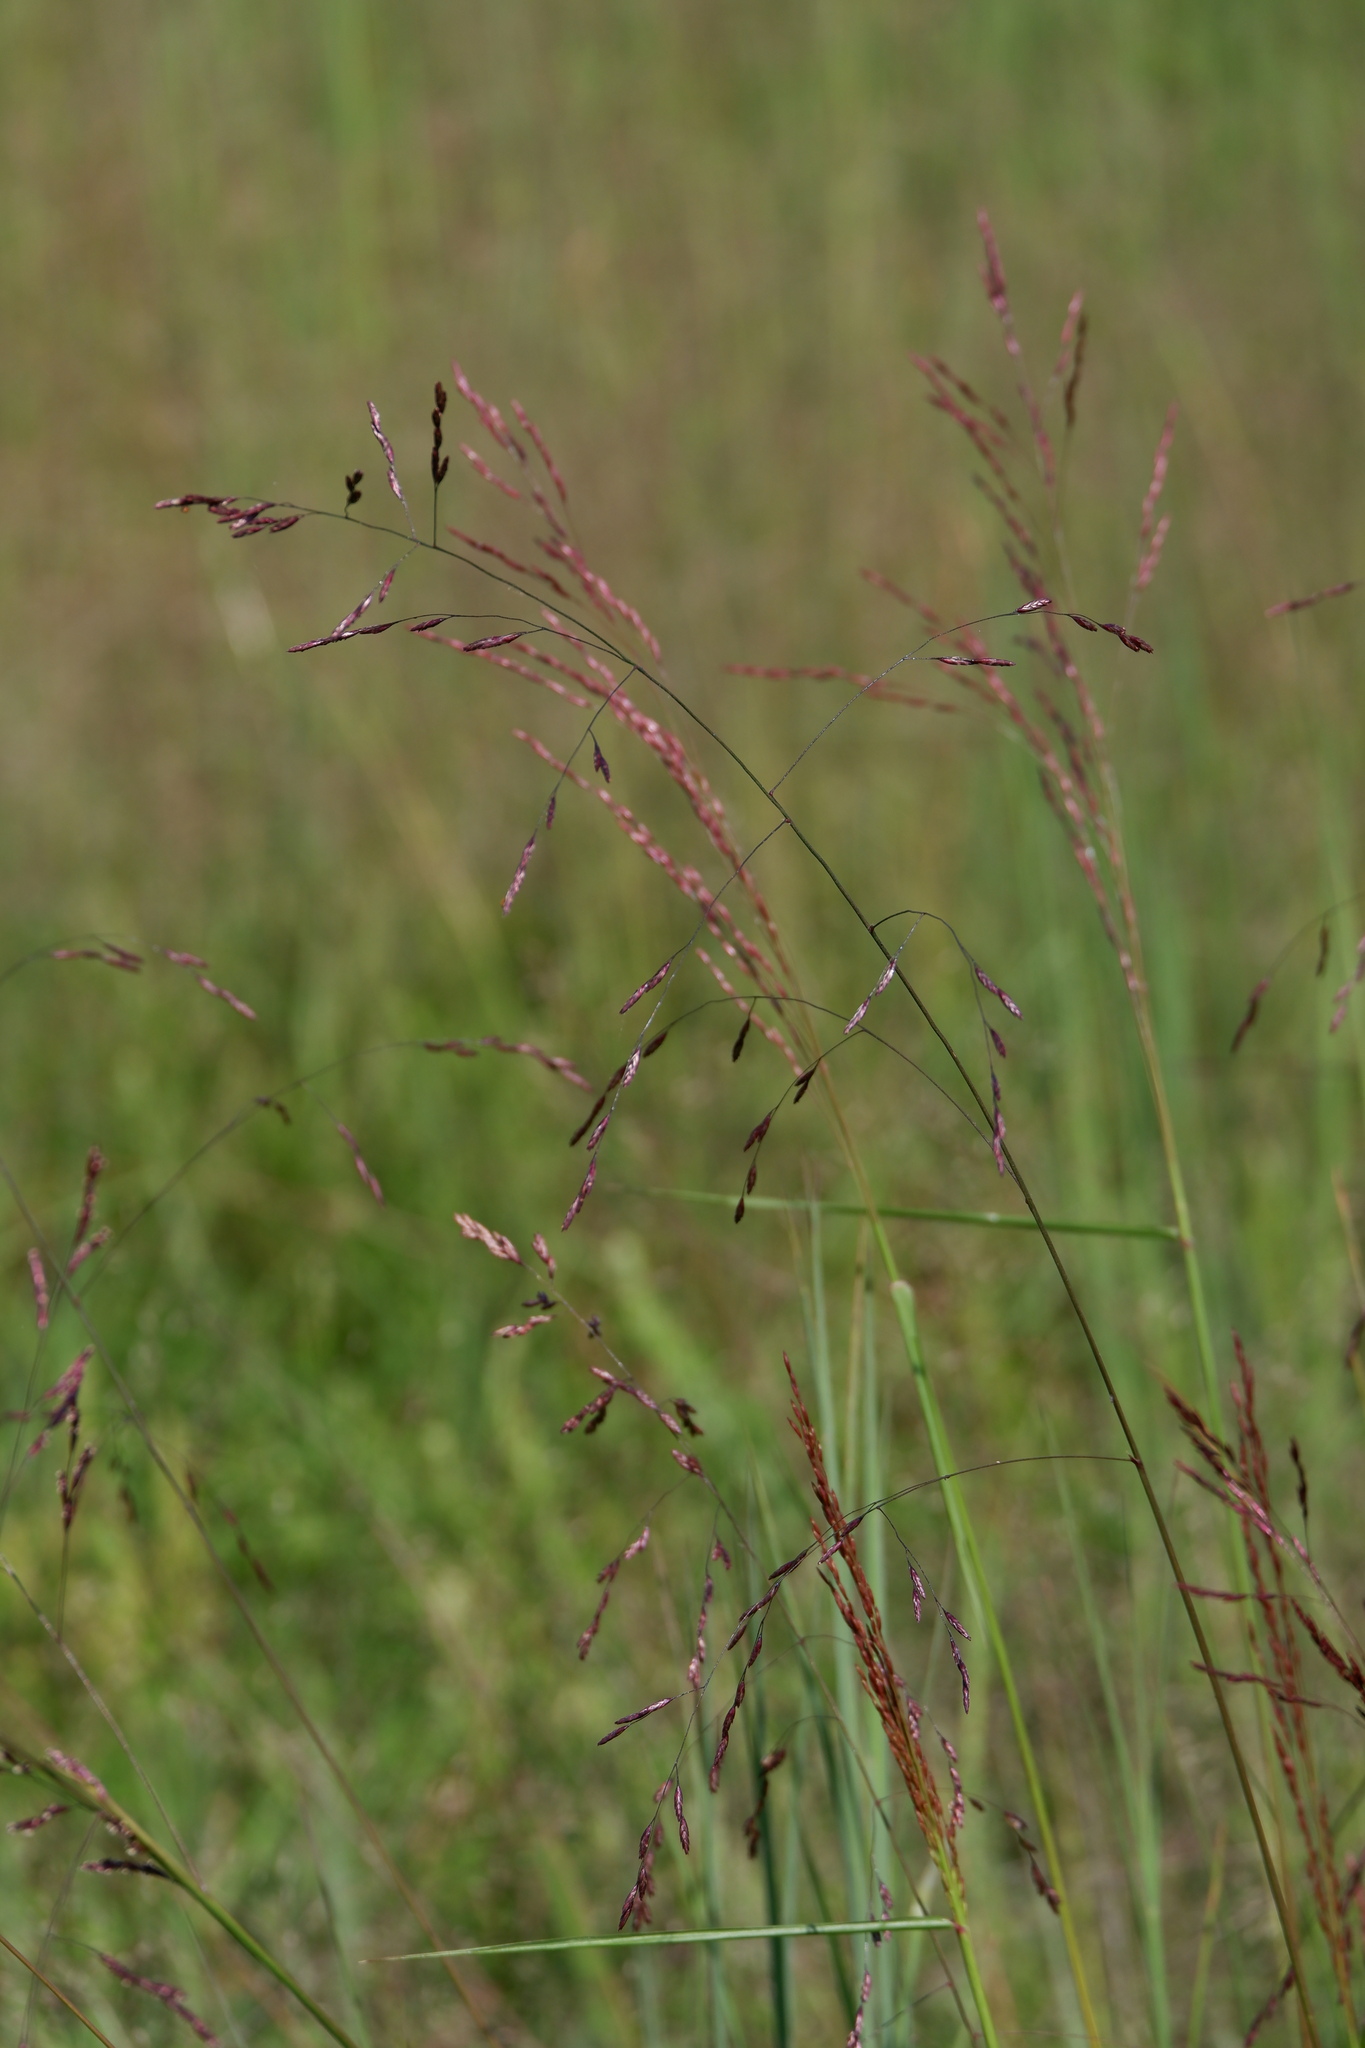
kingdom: Plantae
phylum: Tracheophyta
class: Liliopsida
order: Poales
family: Poaceae
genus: Tridens
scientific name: Tridens flavus
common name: Purpletop
